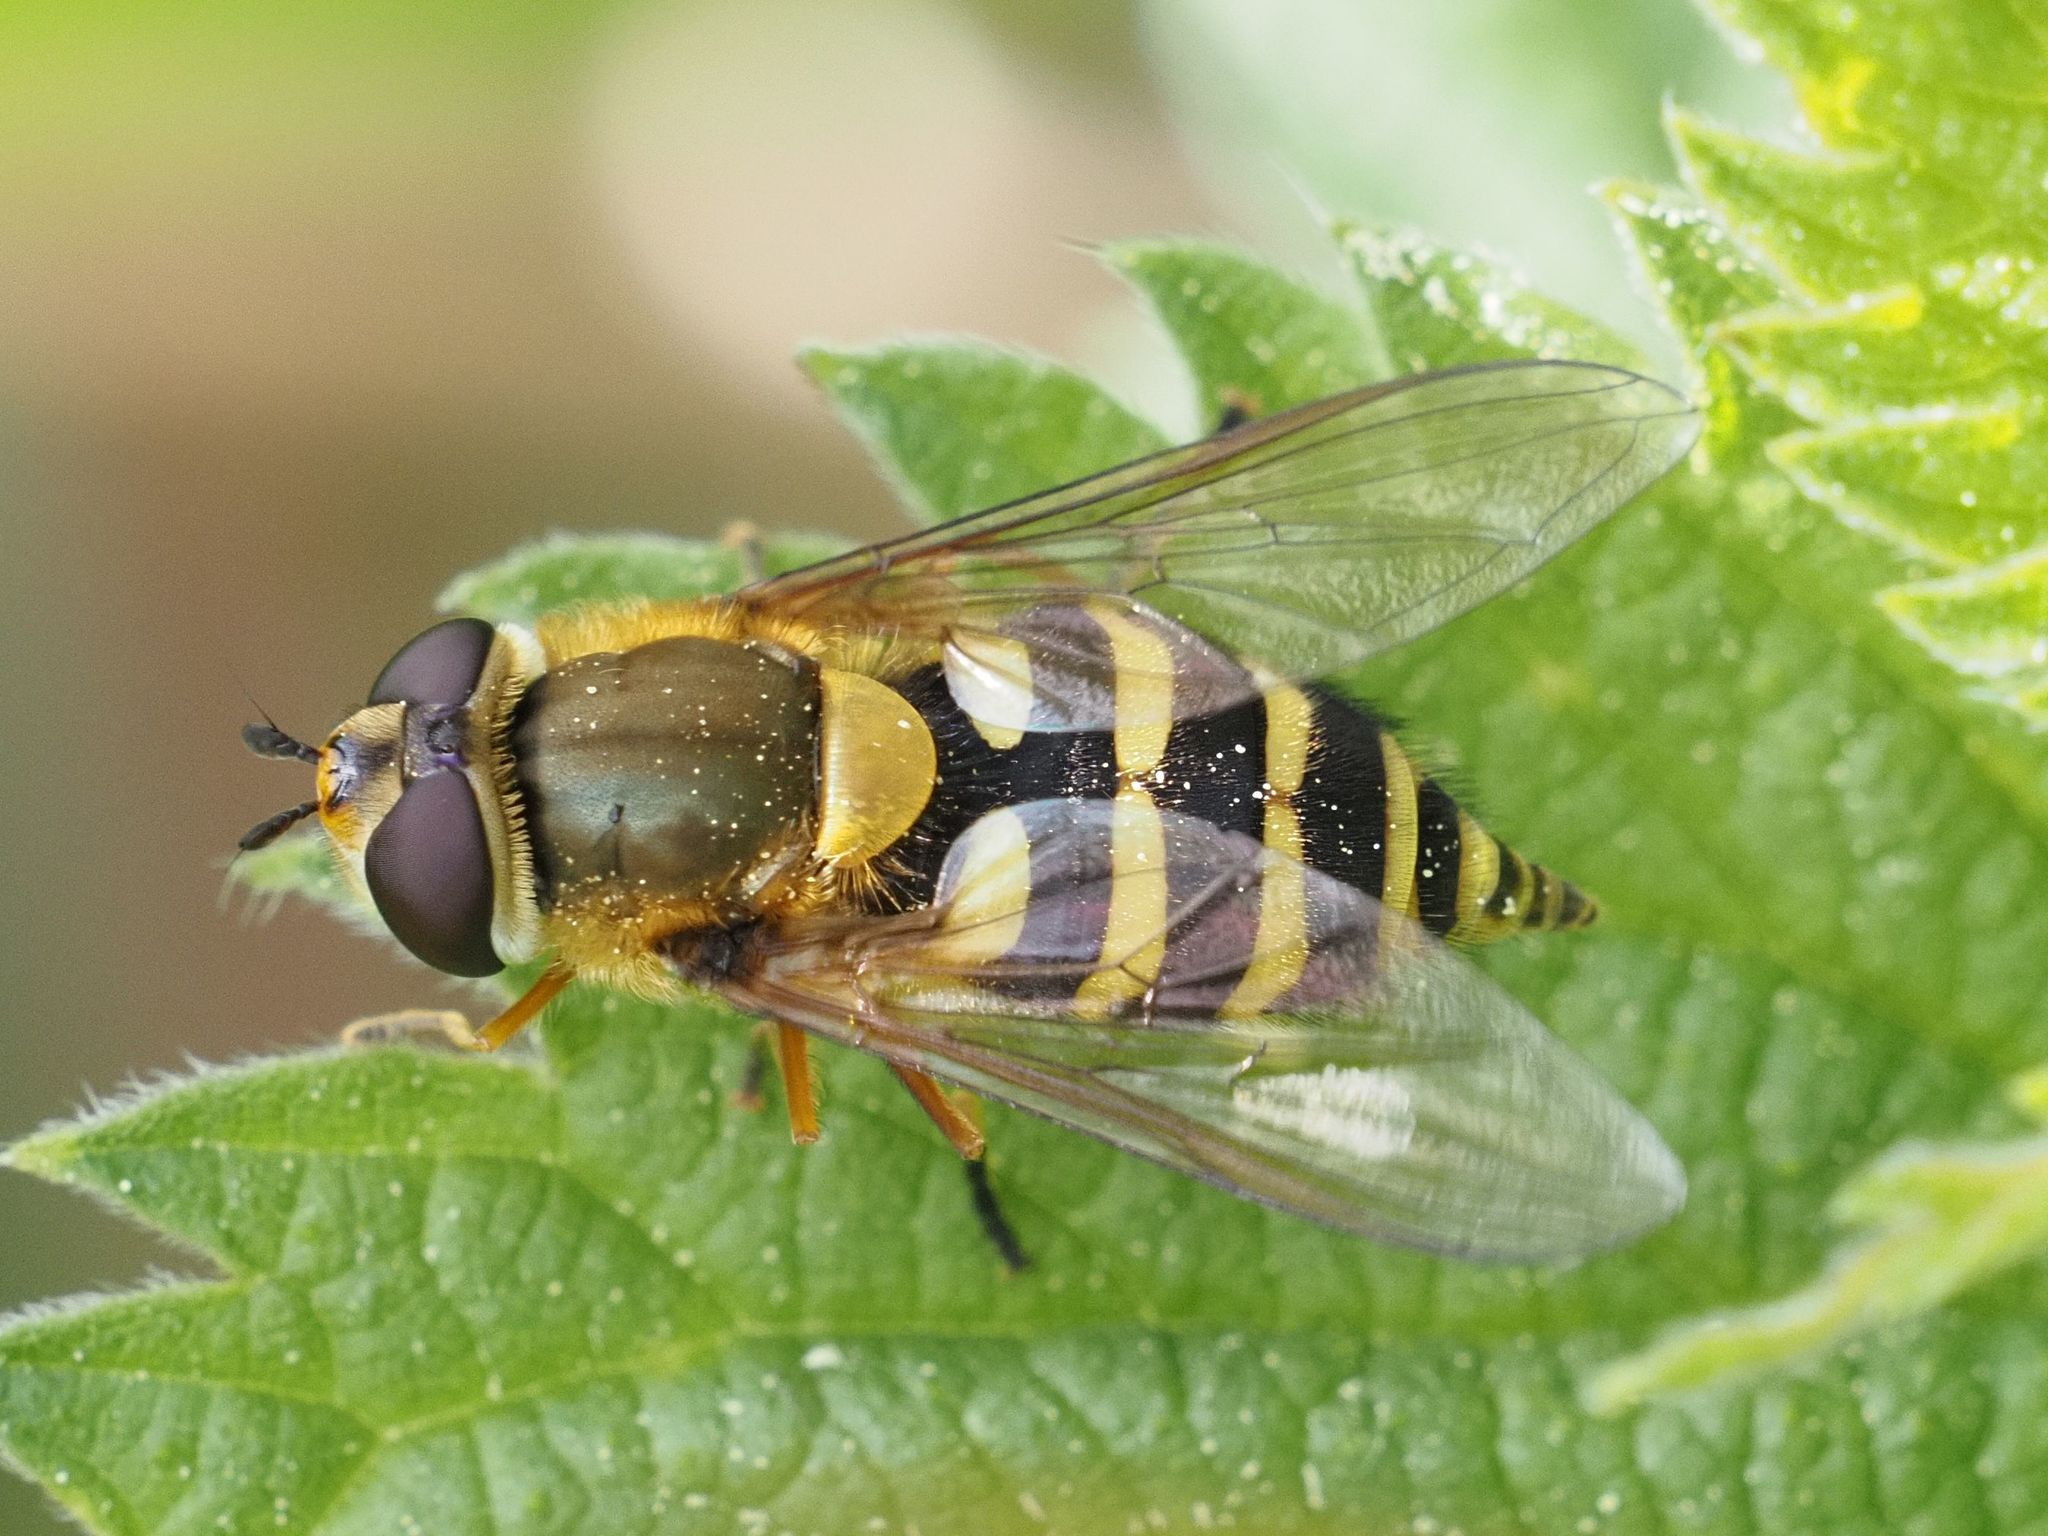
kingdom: Animalia
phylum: Arthropoda
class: Insecta
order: Diptera
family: Syrphidae
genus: Syrphus
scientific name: Syrphus
